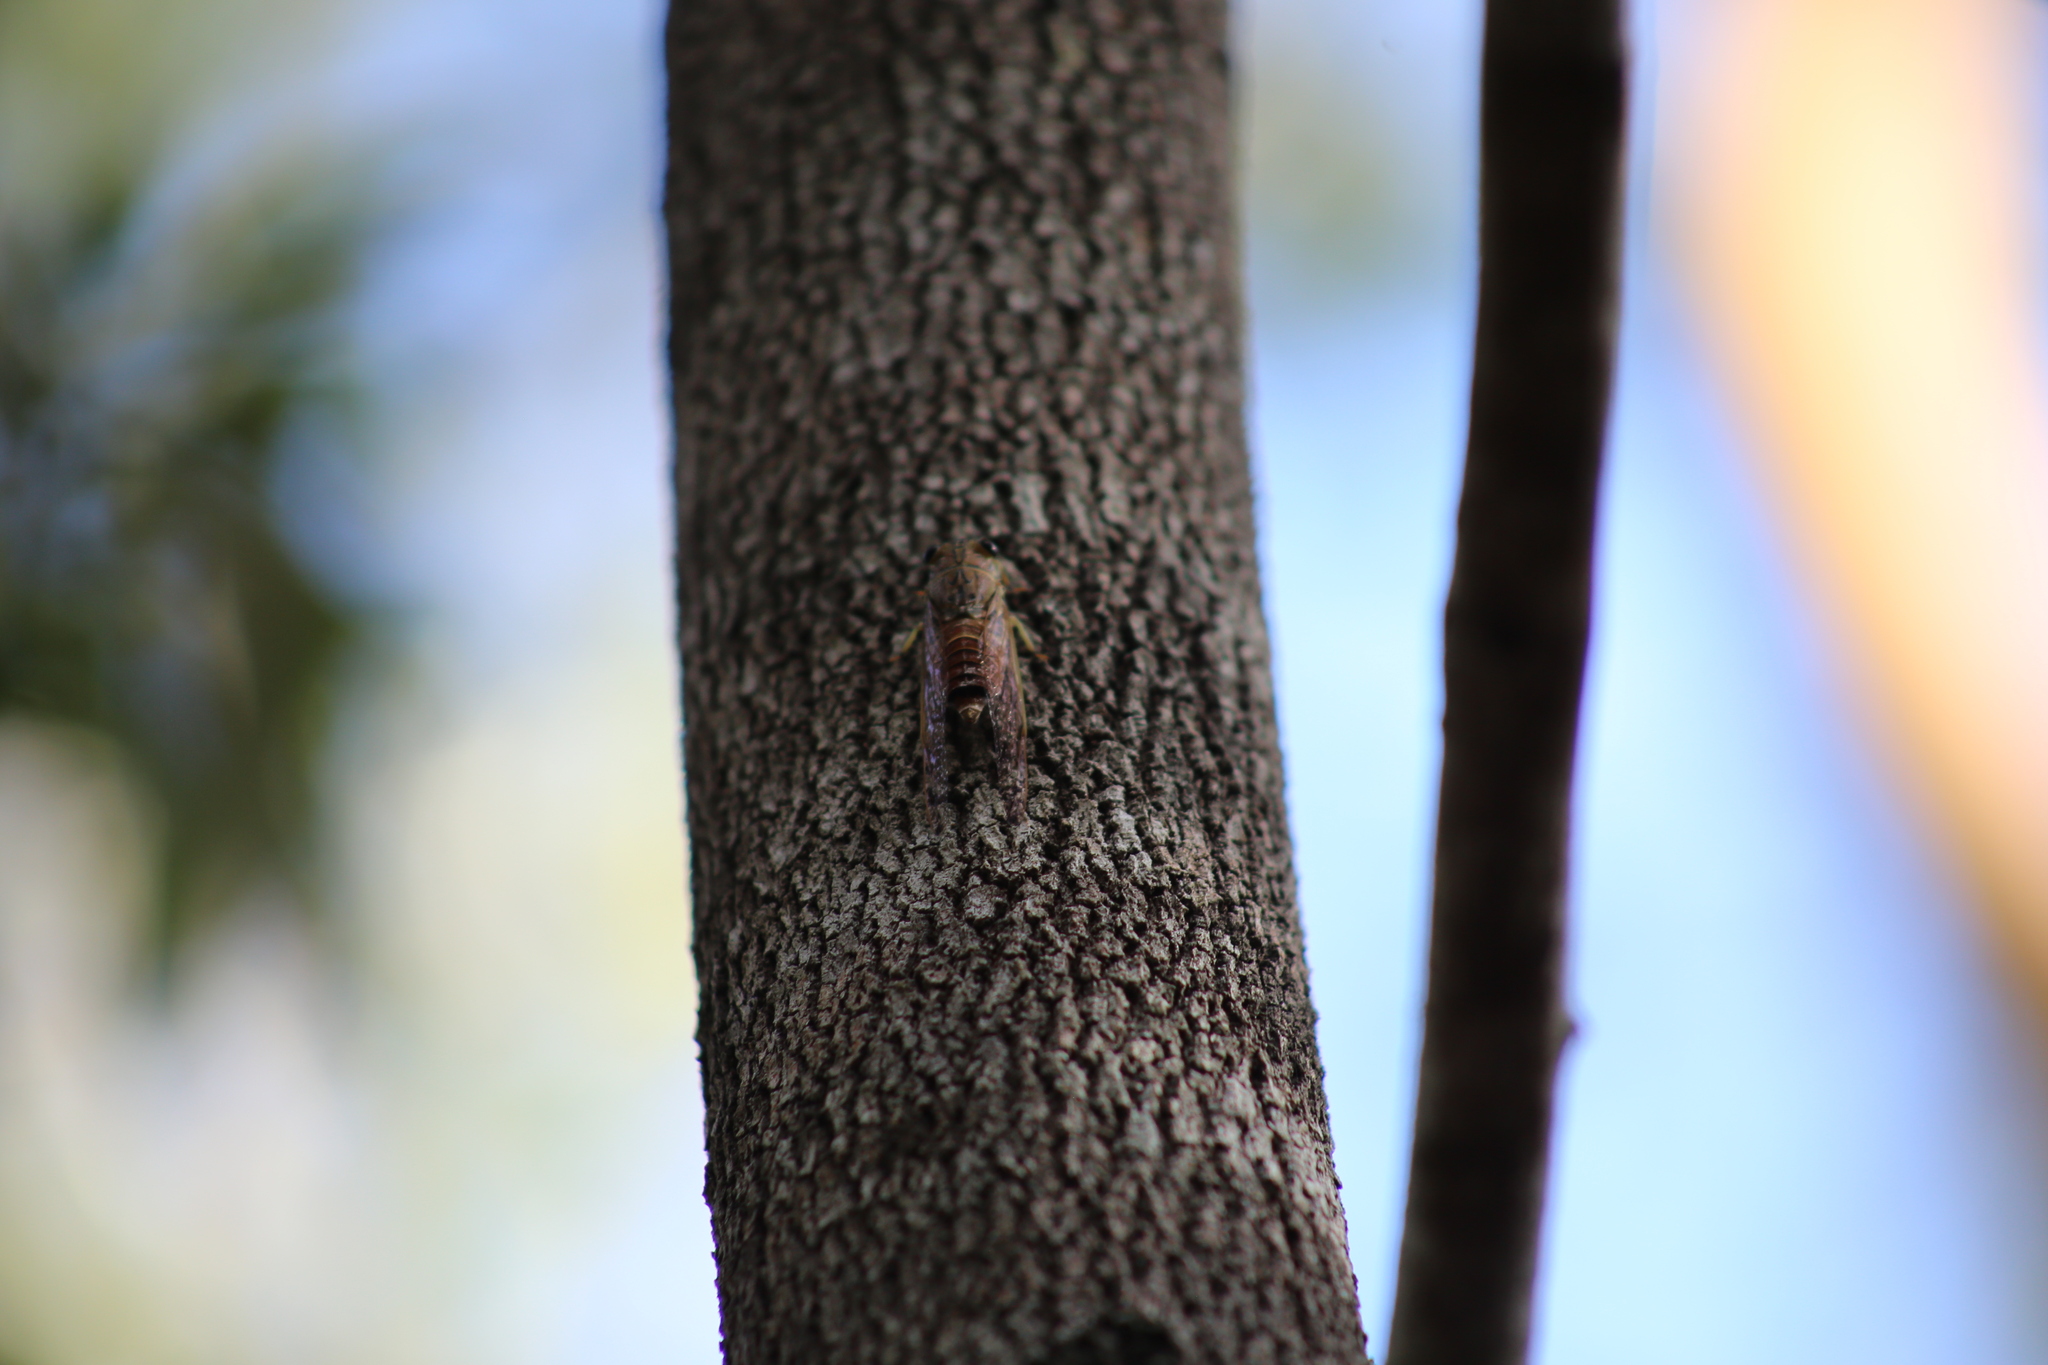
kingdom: Animalia
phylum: Arthropoda
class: Insecta
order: Hemiptera
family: Cicadidae
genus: Tamasa
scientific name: Tamasa tristigma
